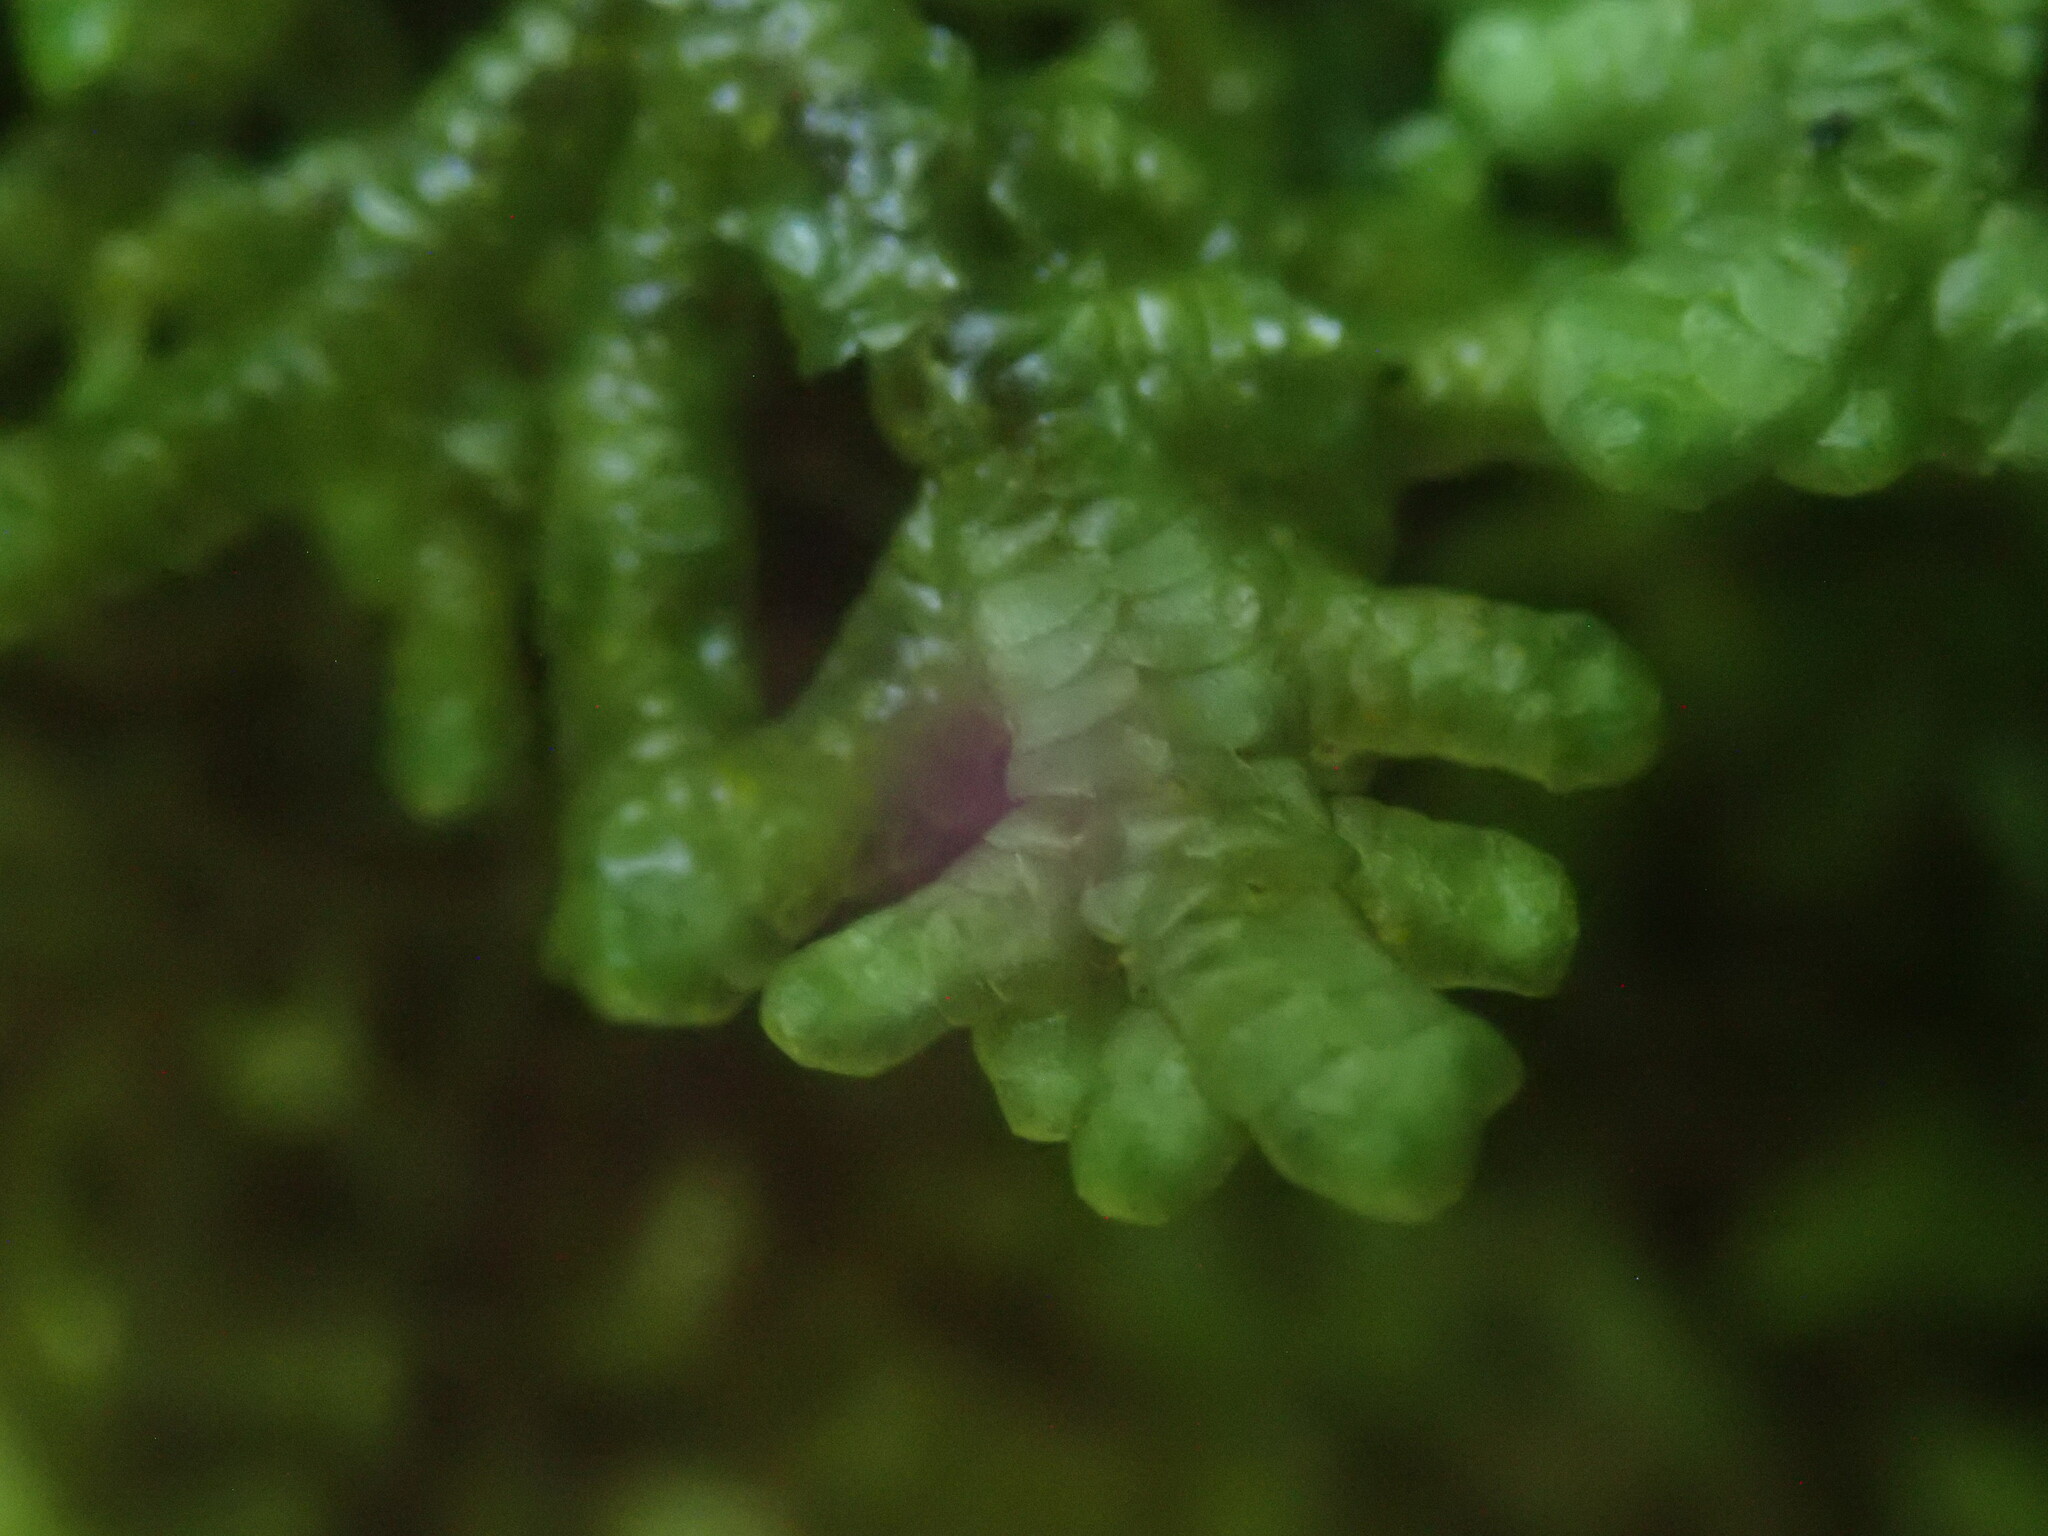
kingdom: Plantae
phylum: Marchantiophyta
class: Jungermanniopsida
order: Porellales
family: Porellaceae
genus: Porella
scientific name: Porella platyphylla
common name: Wall scalewort
